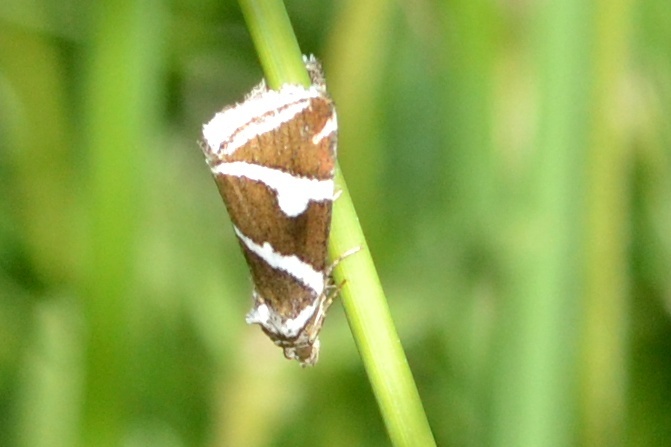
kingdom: Animalia
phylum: Arthropoda
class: Insecta
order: Lepidoptera
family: Noctuidae
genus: Deltote
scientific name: Deltote bankiana
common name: Silver barred
